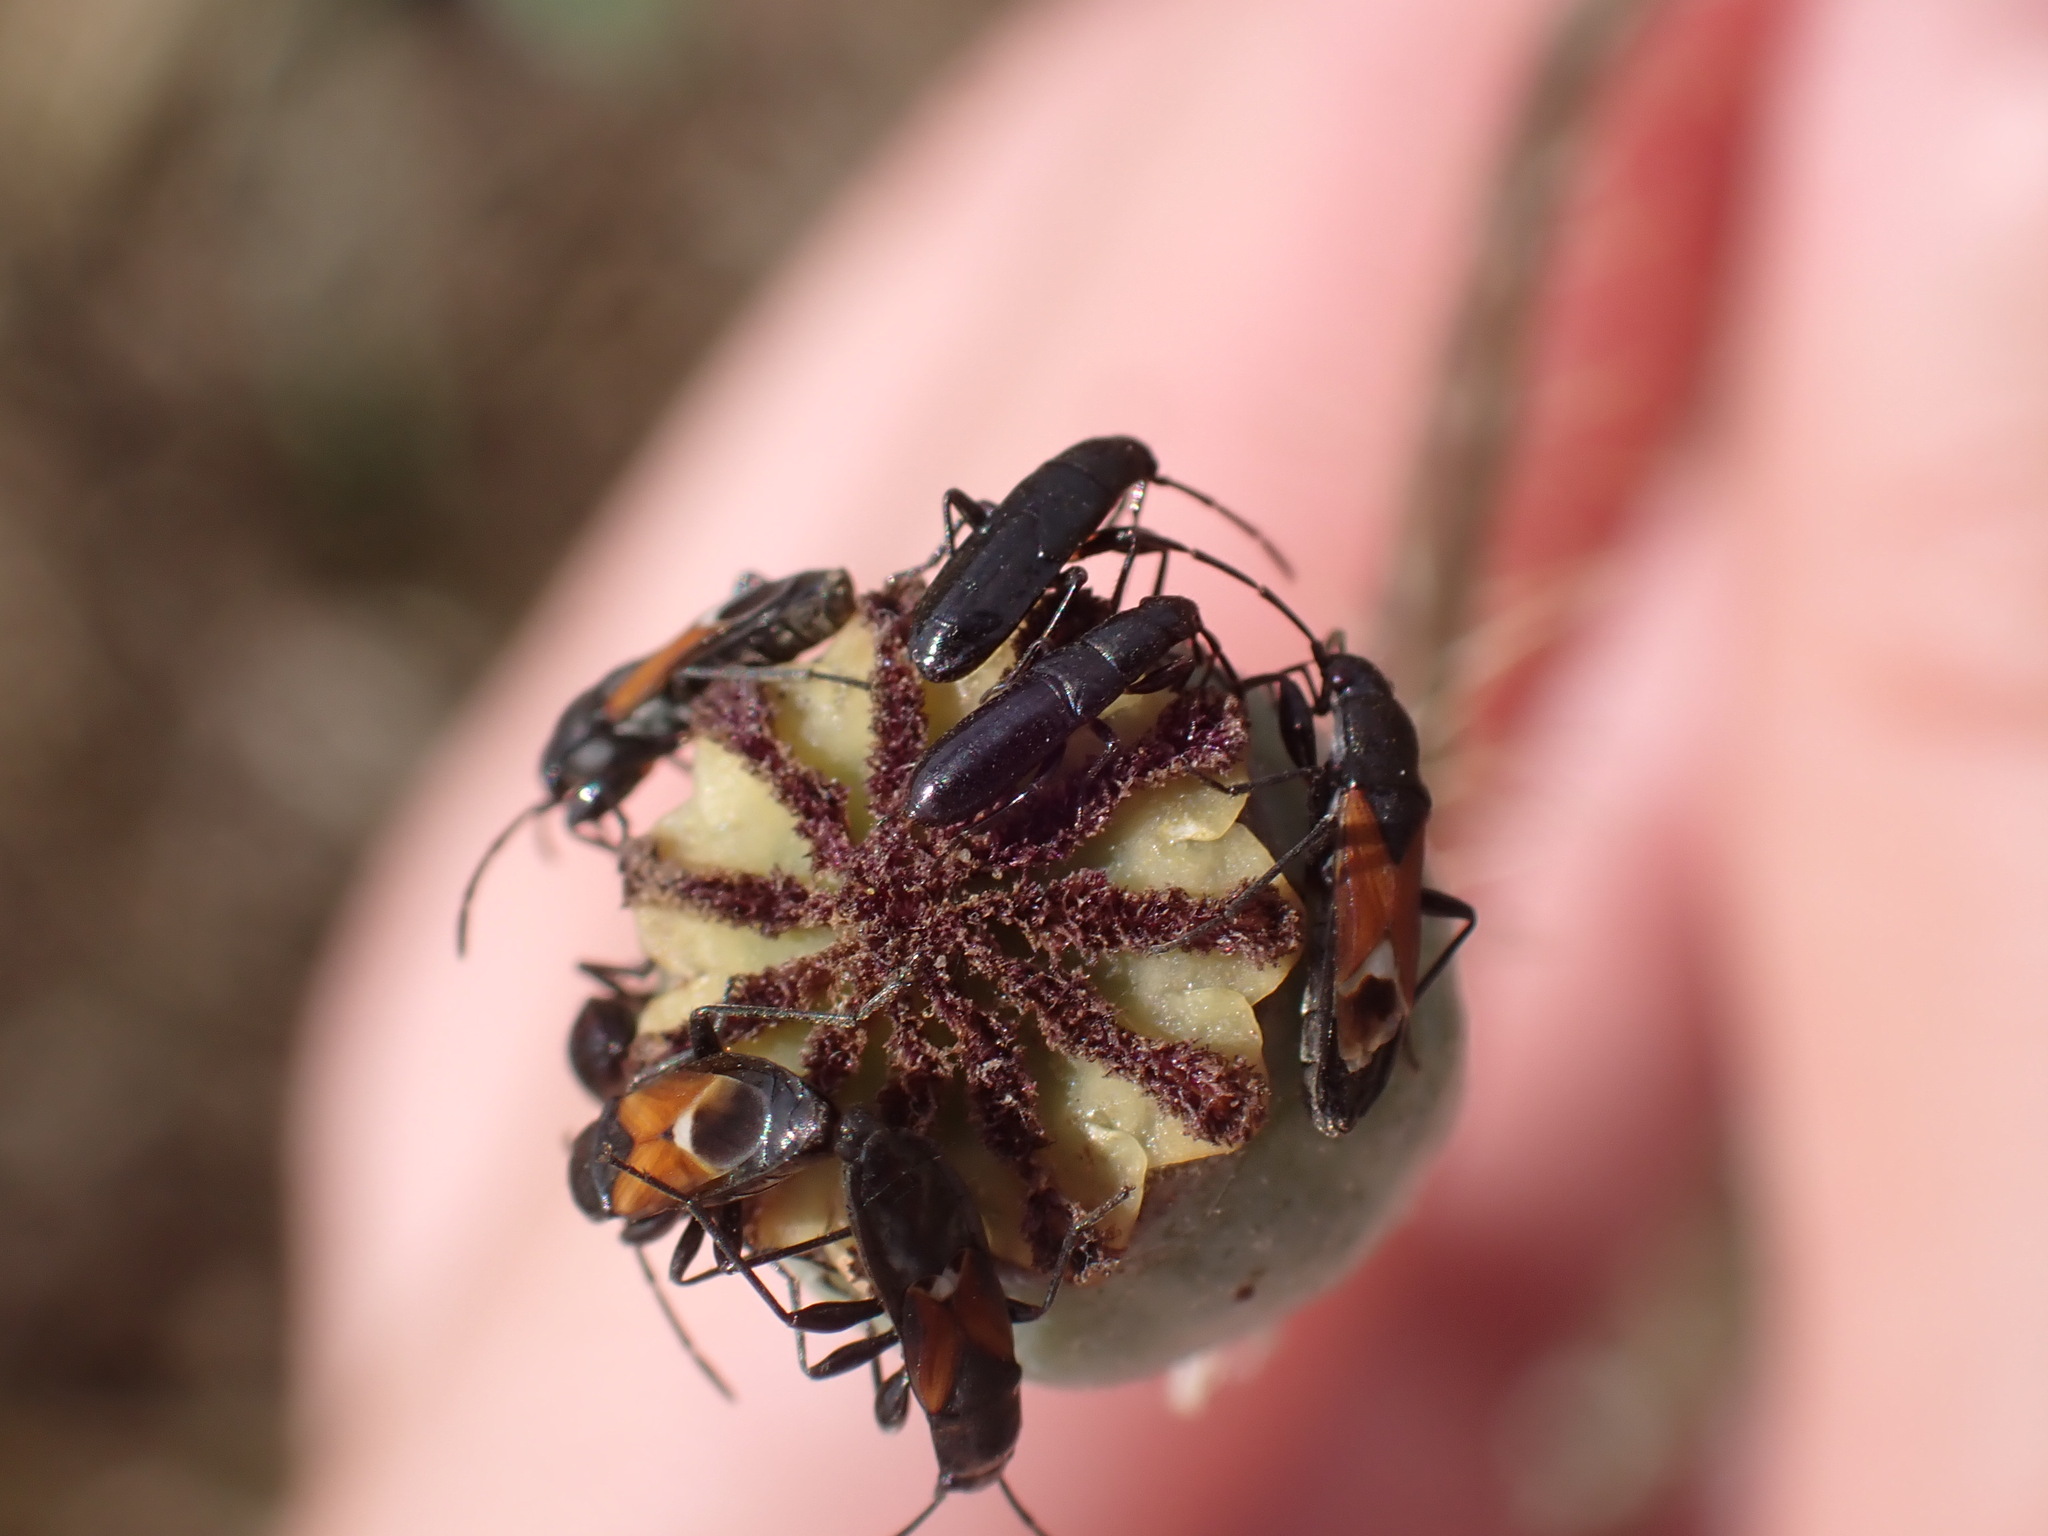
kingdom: Animalia
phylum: Arthropoda
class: Insecta
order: Hemiptera
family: Rhyparochromidae
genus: Pterotmetus
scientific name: Pterotmetus staphyliniformis
